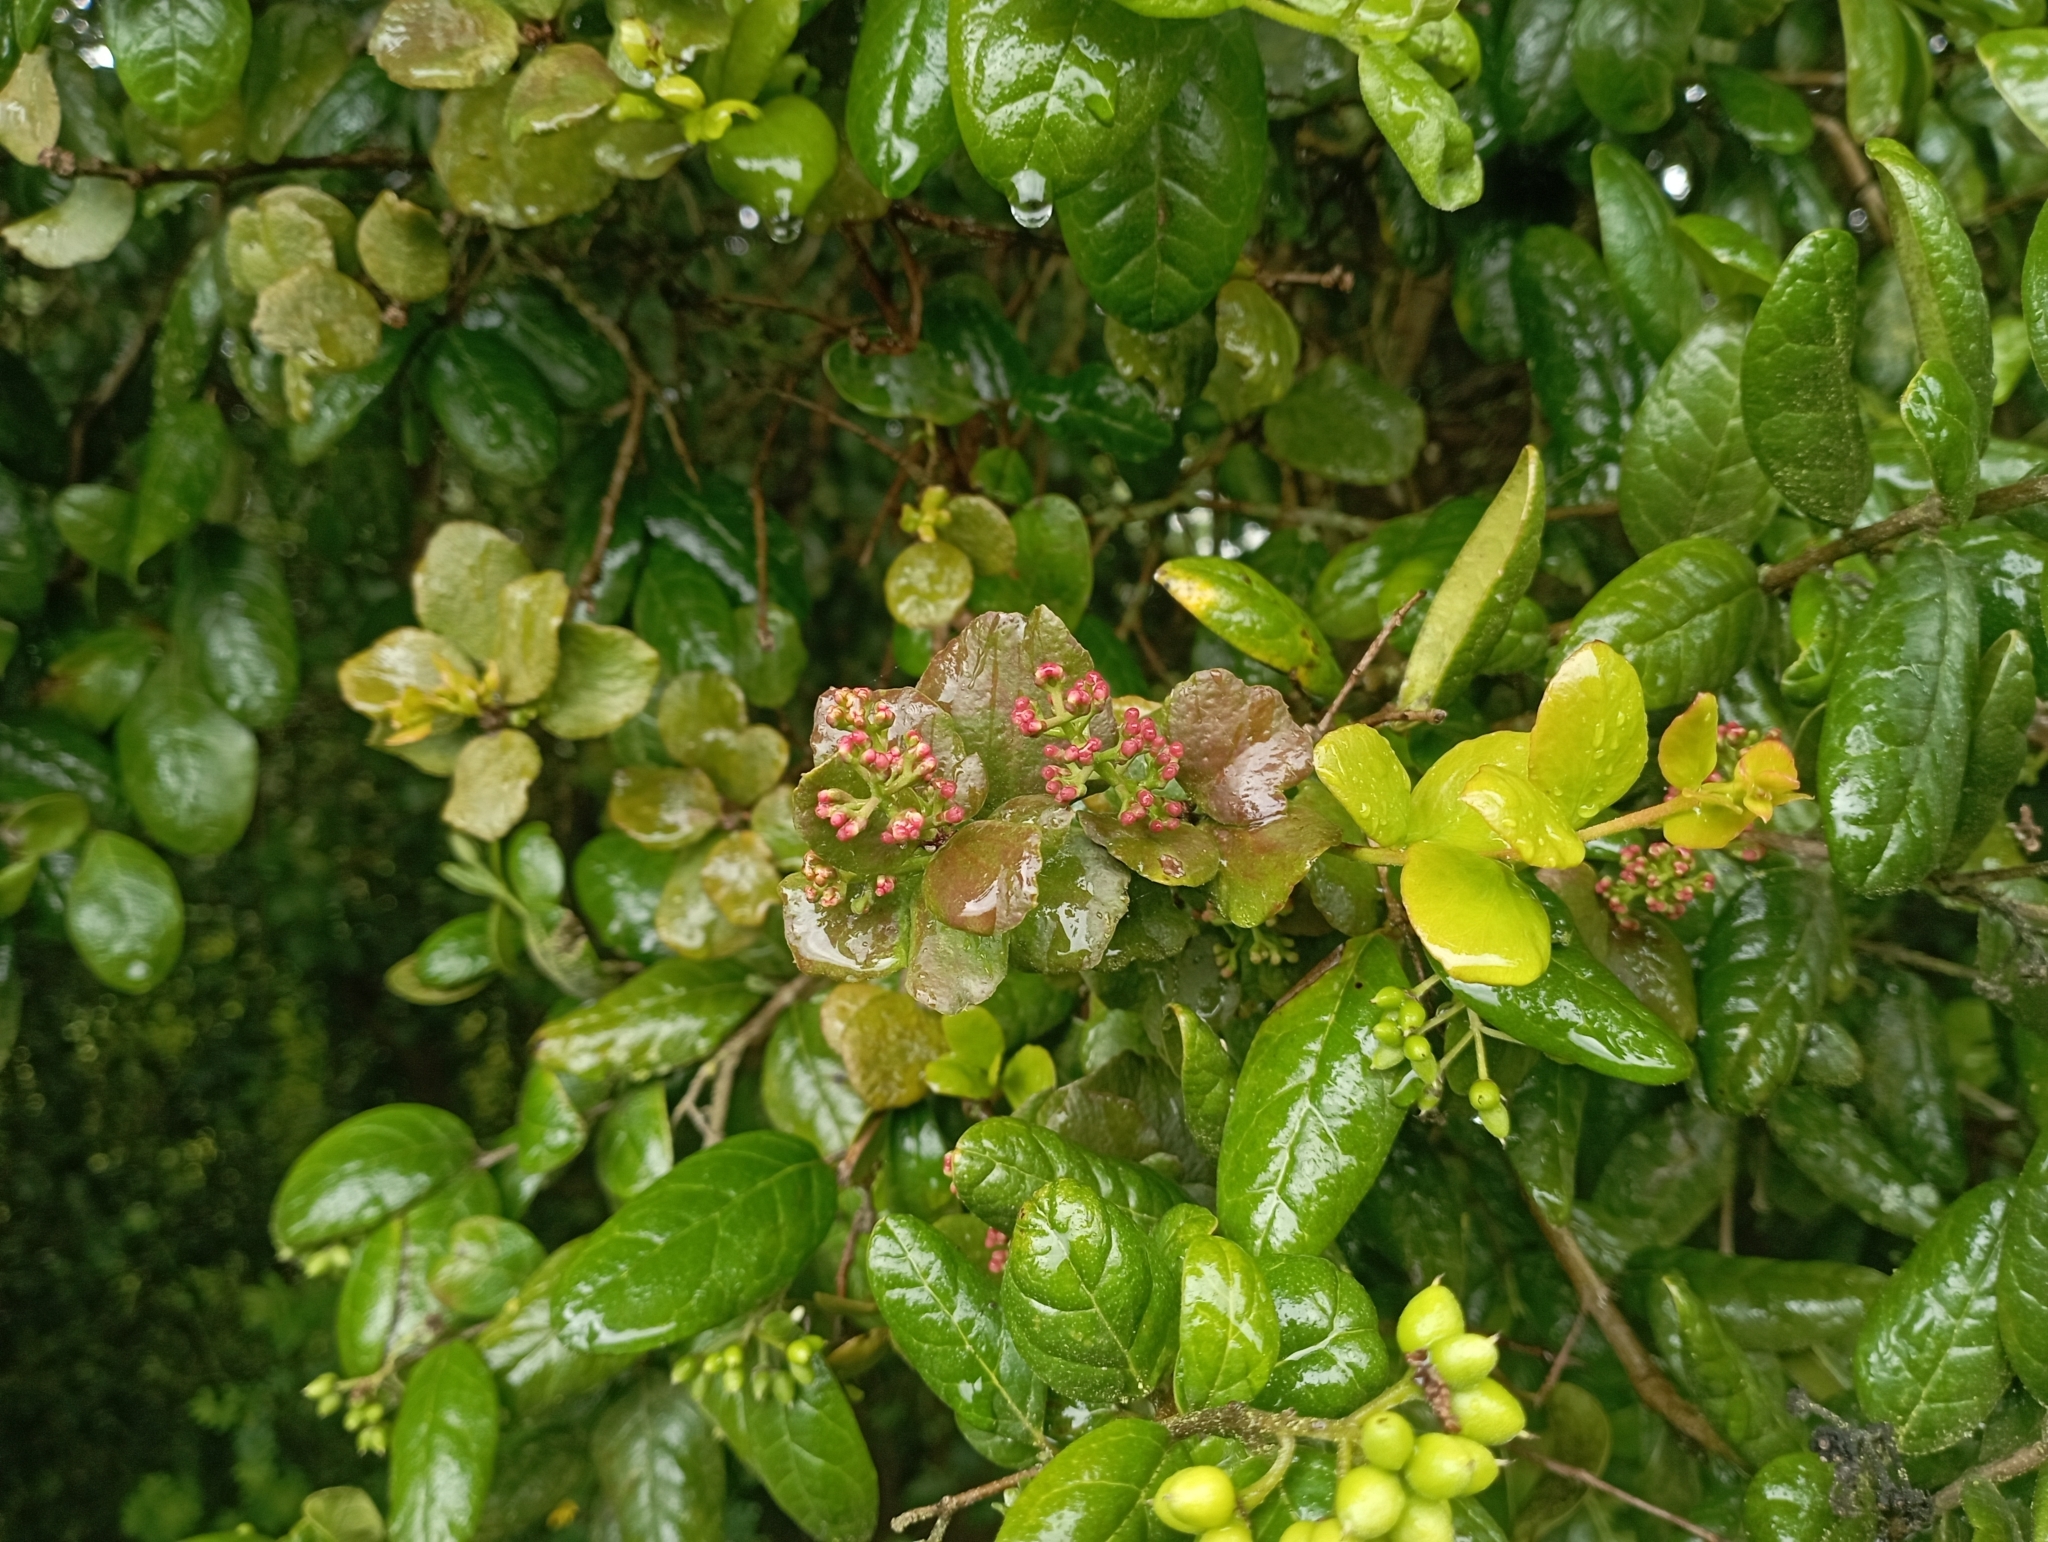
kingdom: Plantae
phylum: Tracheophyta
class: Magnoliopsida
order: Santalales
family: Loranthaceae
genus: Notanthera
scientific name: Notanthera heterophylla
